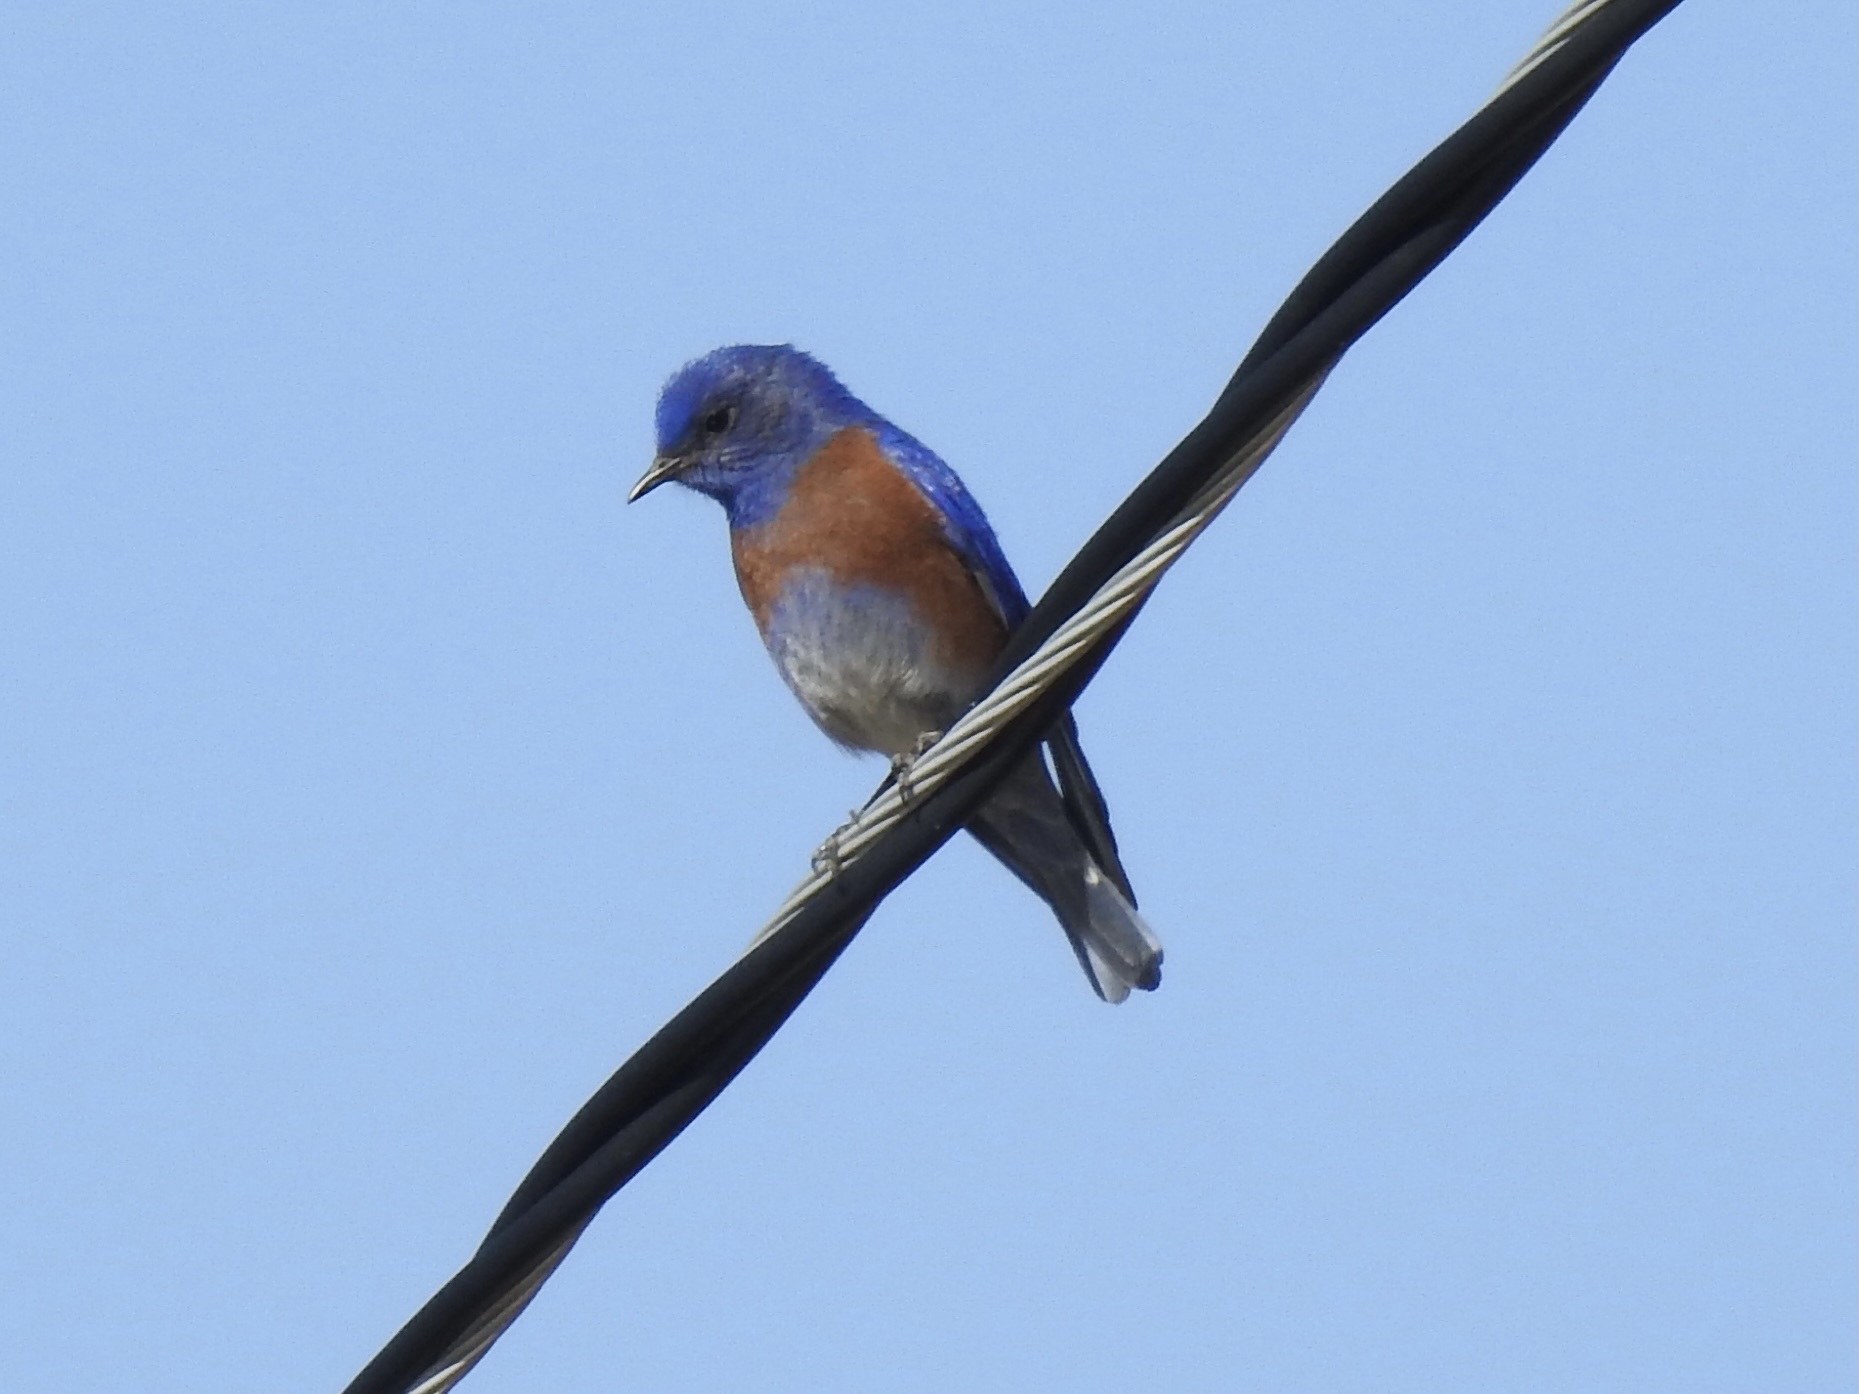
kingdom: Animalia
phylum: Chordata
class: Aves
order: Passeriformes
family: Turdidae
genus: Sialia
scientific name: Sialia mexicana
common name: Western bluebird
